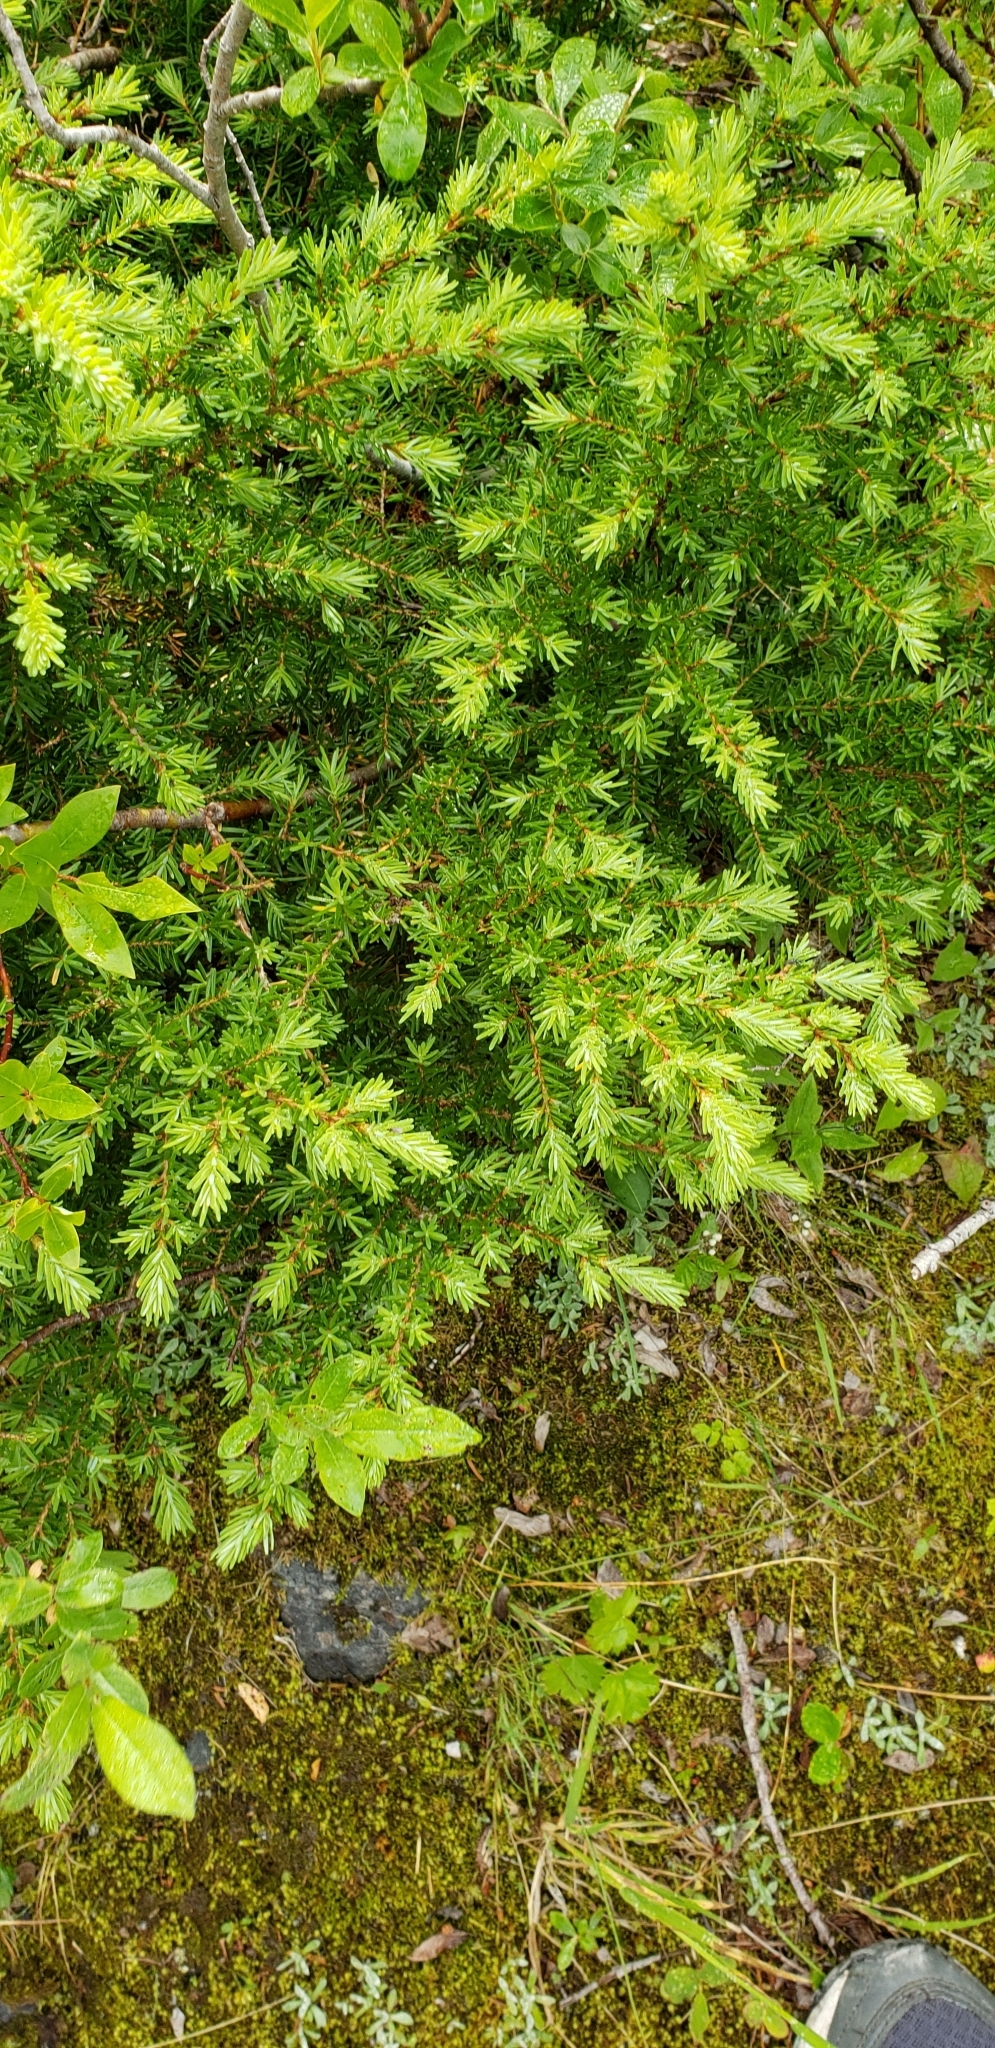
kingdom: Plantae
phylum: Tracheophyta
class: Pinopsida
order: Pinales
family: Pinaceae
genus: Tsuga
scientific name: Tsuga heterophylla
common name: Western hemlock
